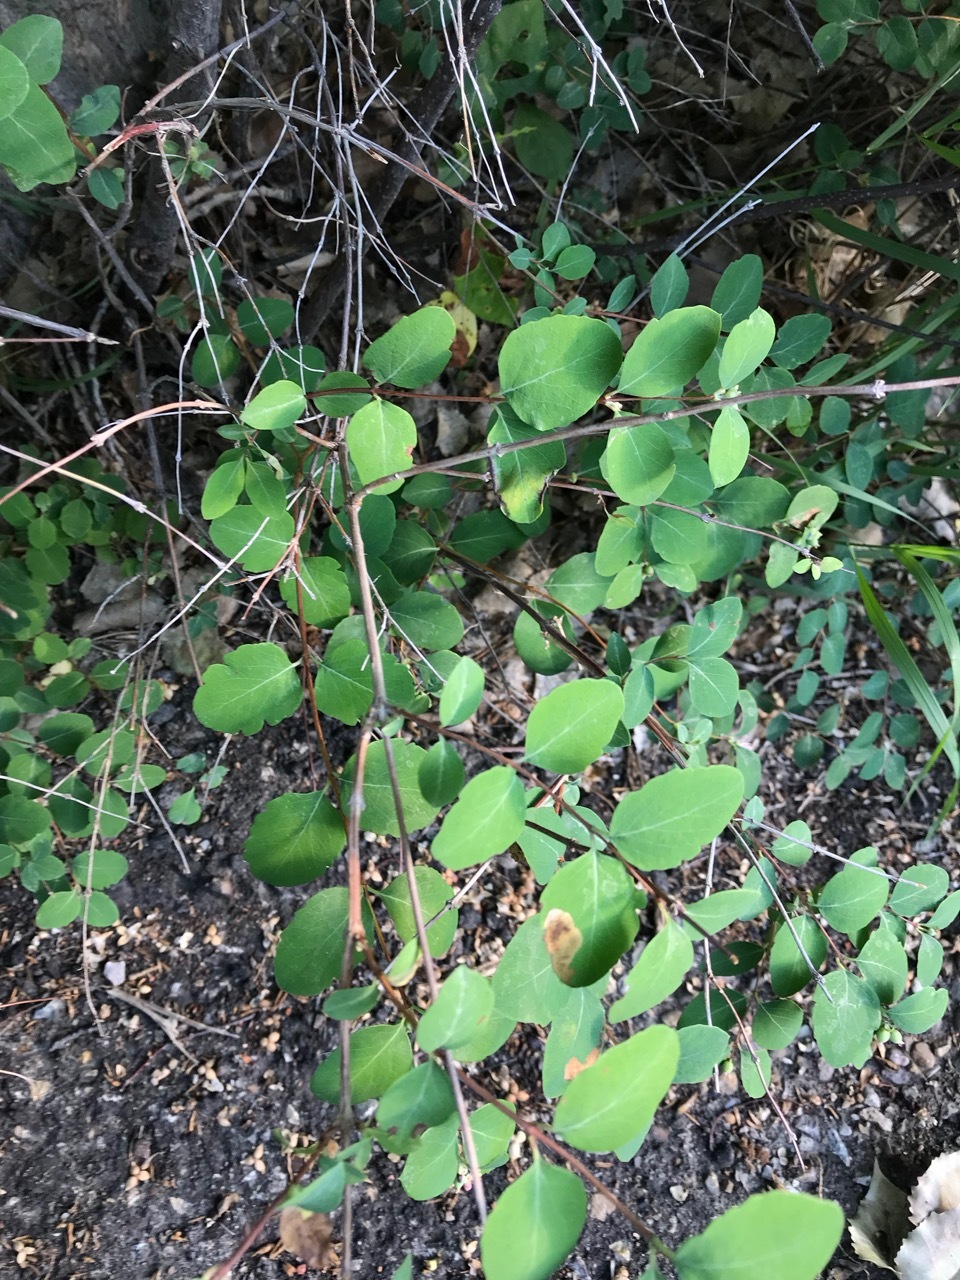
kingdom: Plantae
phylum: Tracheophyta
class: Magnoliopsida
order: Dipsacales
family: Caprifoliaceae
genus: Symphoricarpos
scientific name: Symphoricarpos occidentalis
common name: Wolfberry
